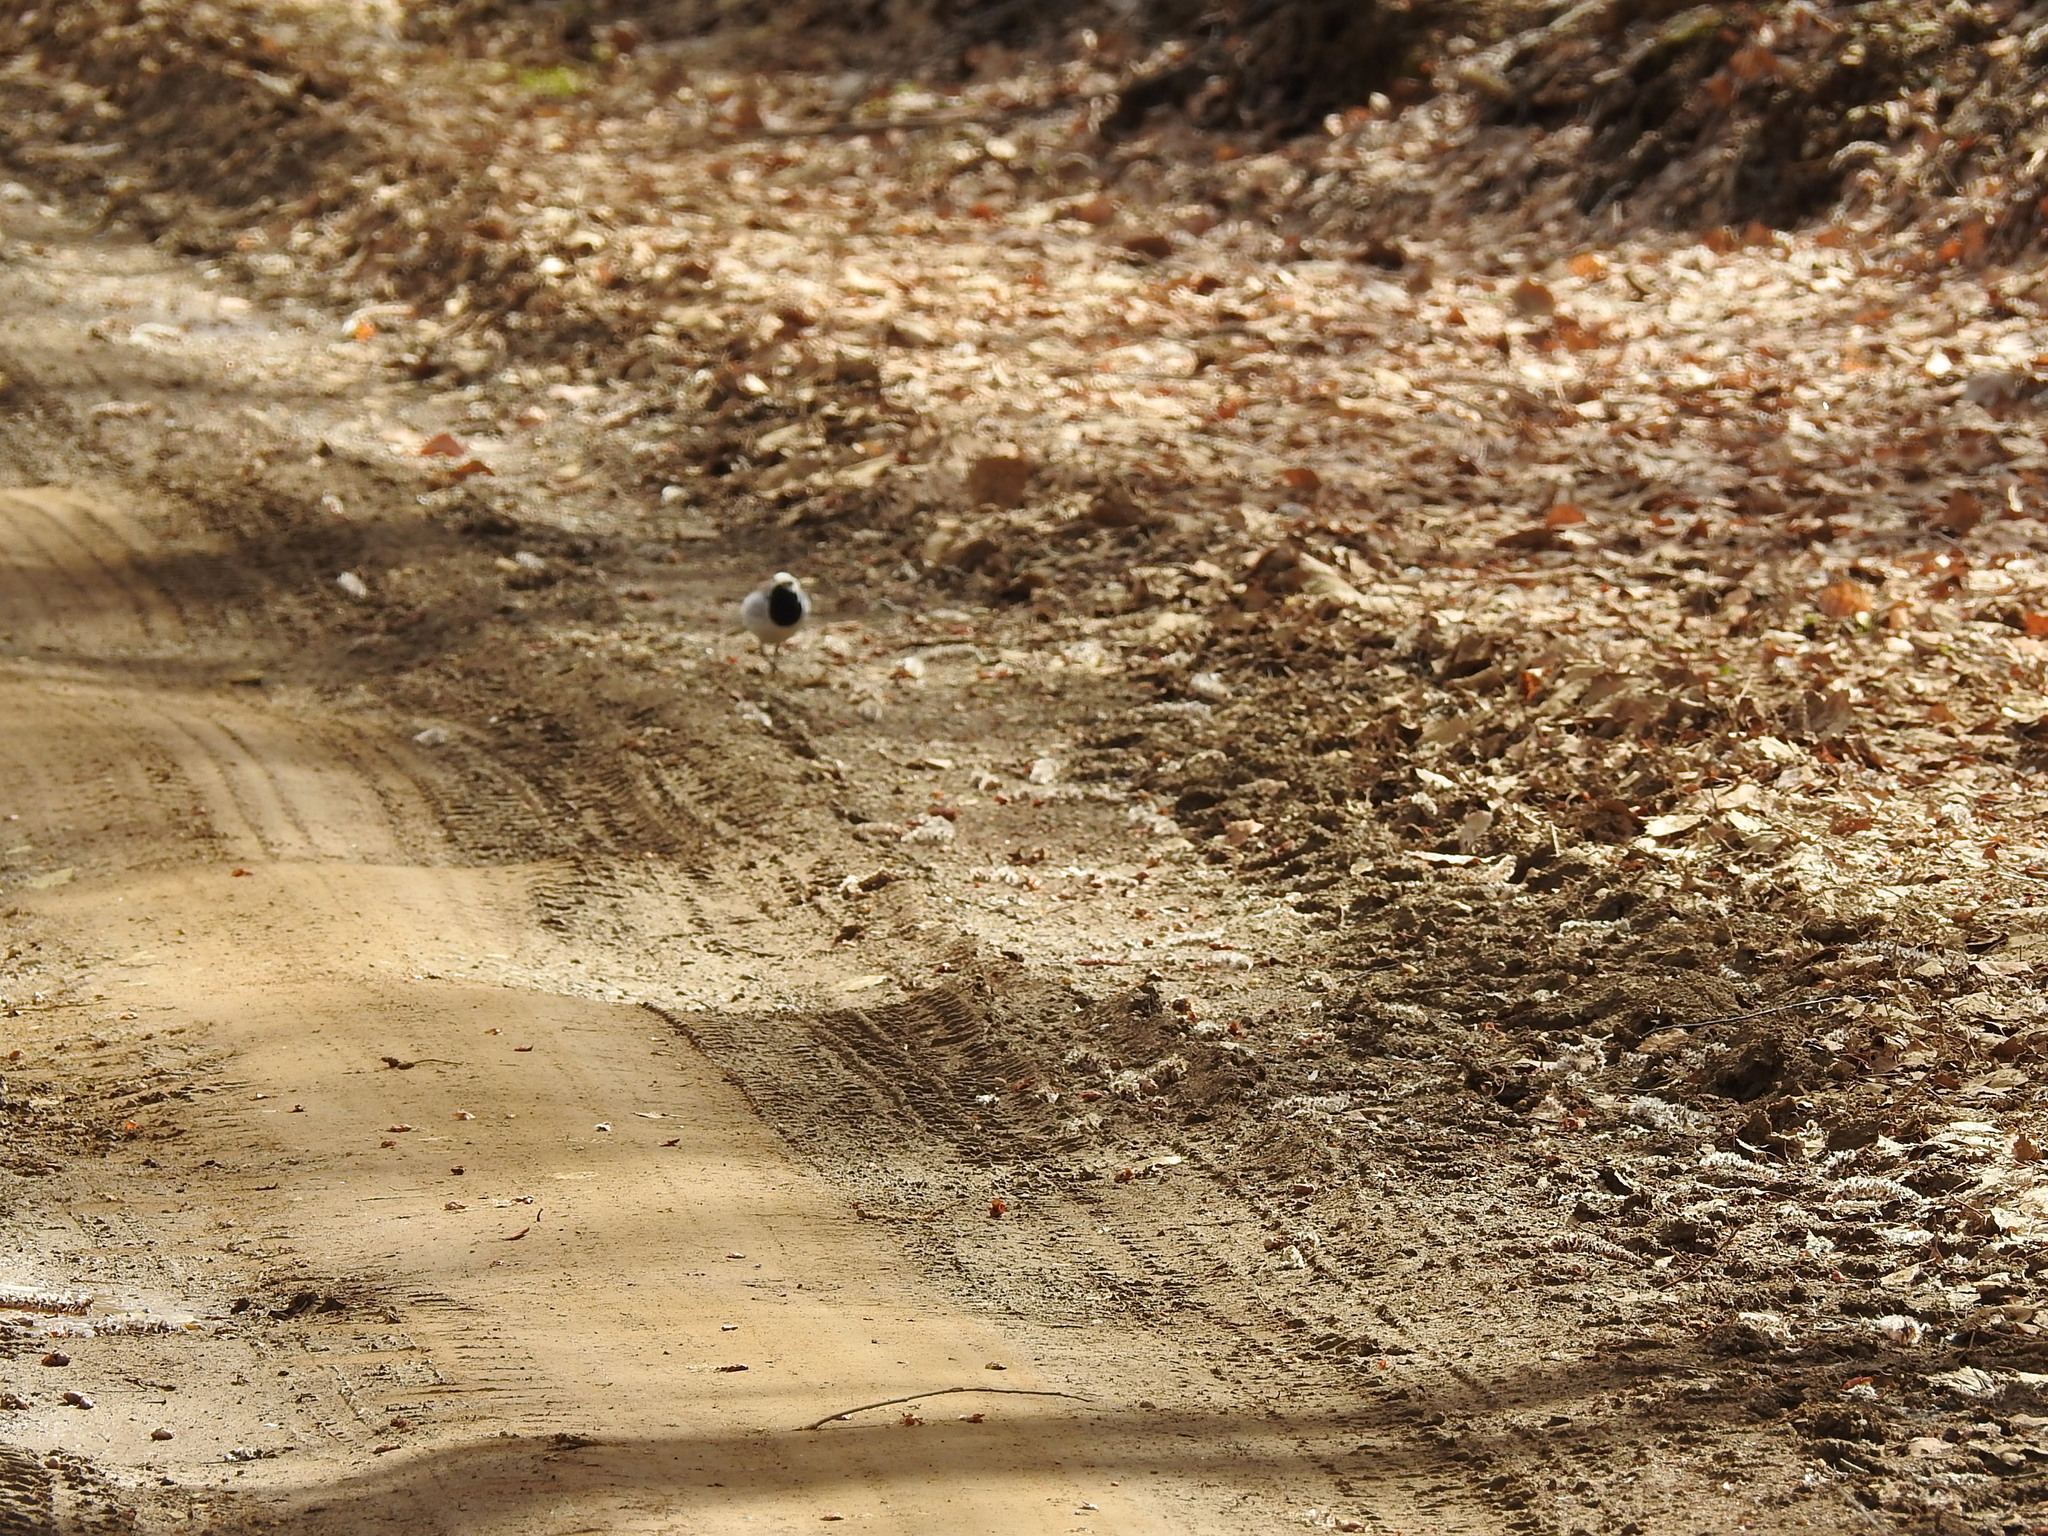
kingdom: Animalia
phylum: Chordata
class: Aves
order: Passeriformes
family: Motacillidae
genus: Motacilla
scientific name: Motacilla alba
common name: White wagtail
